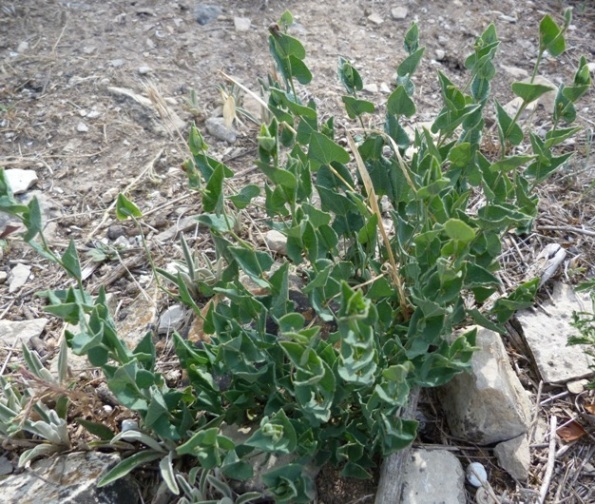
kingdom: Plantae
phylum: Tracheophyta
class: Magnoliopsida
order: Piperales
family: Aristolochiaceae
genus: Aristolochia
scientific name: Aristolochia pistolochia
